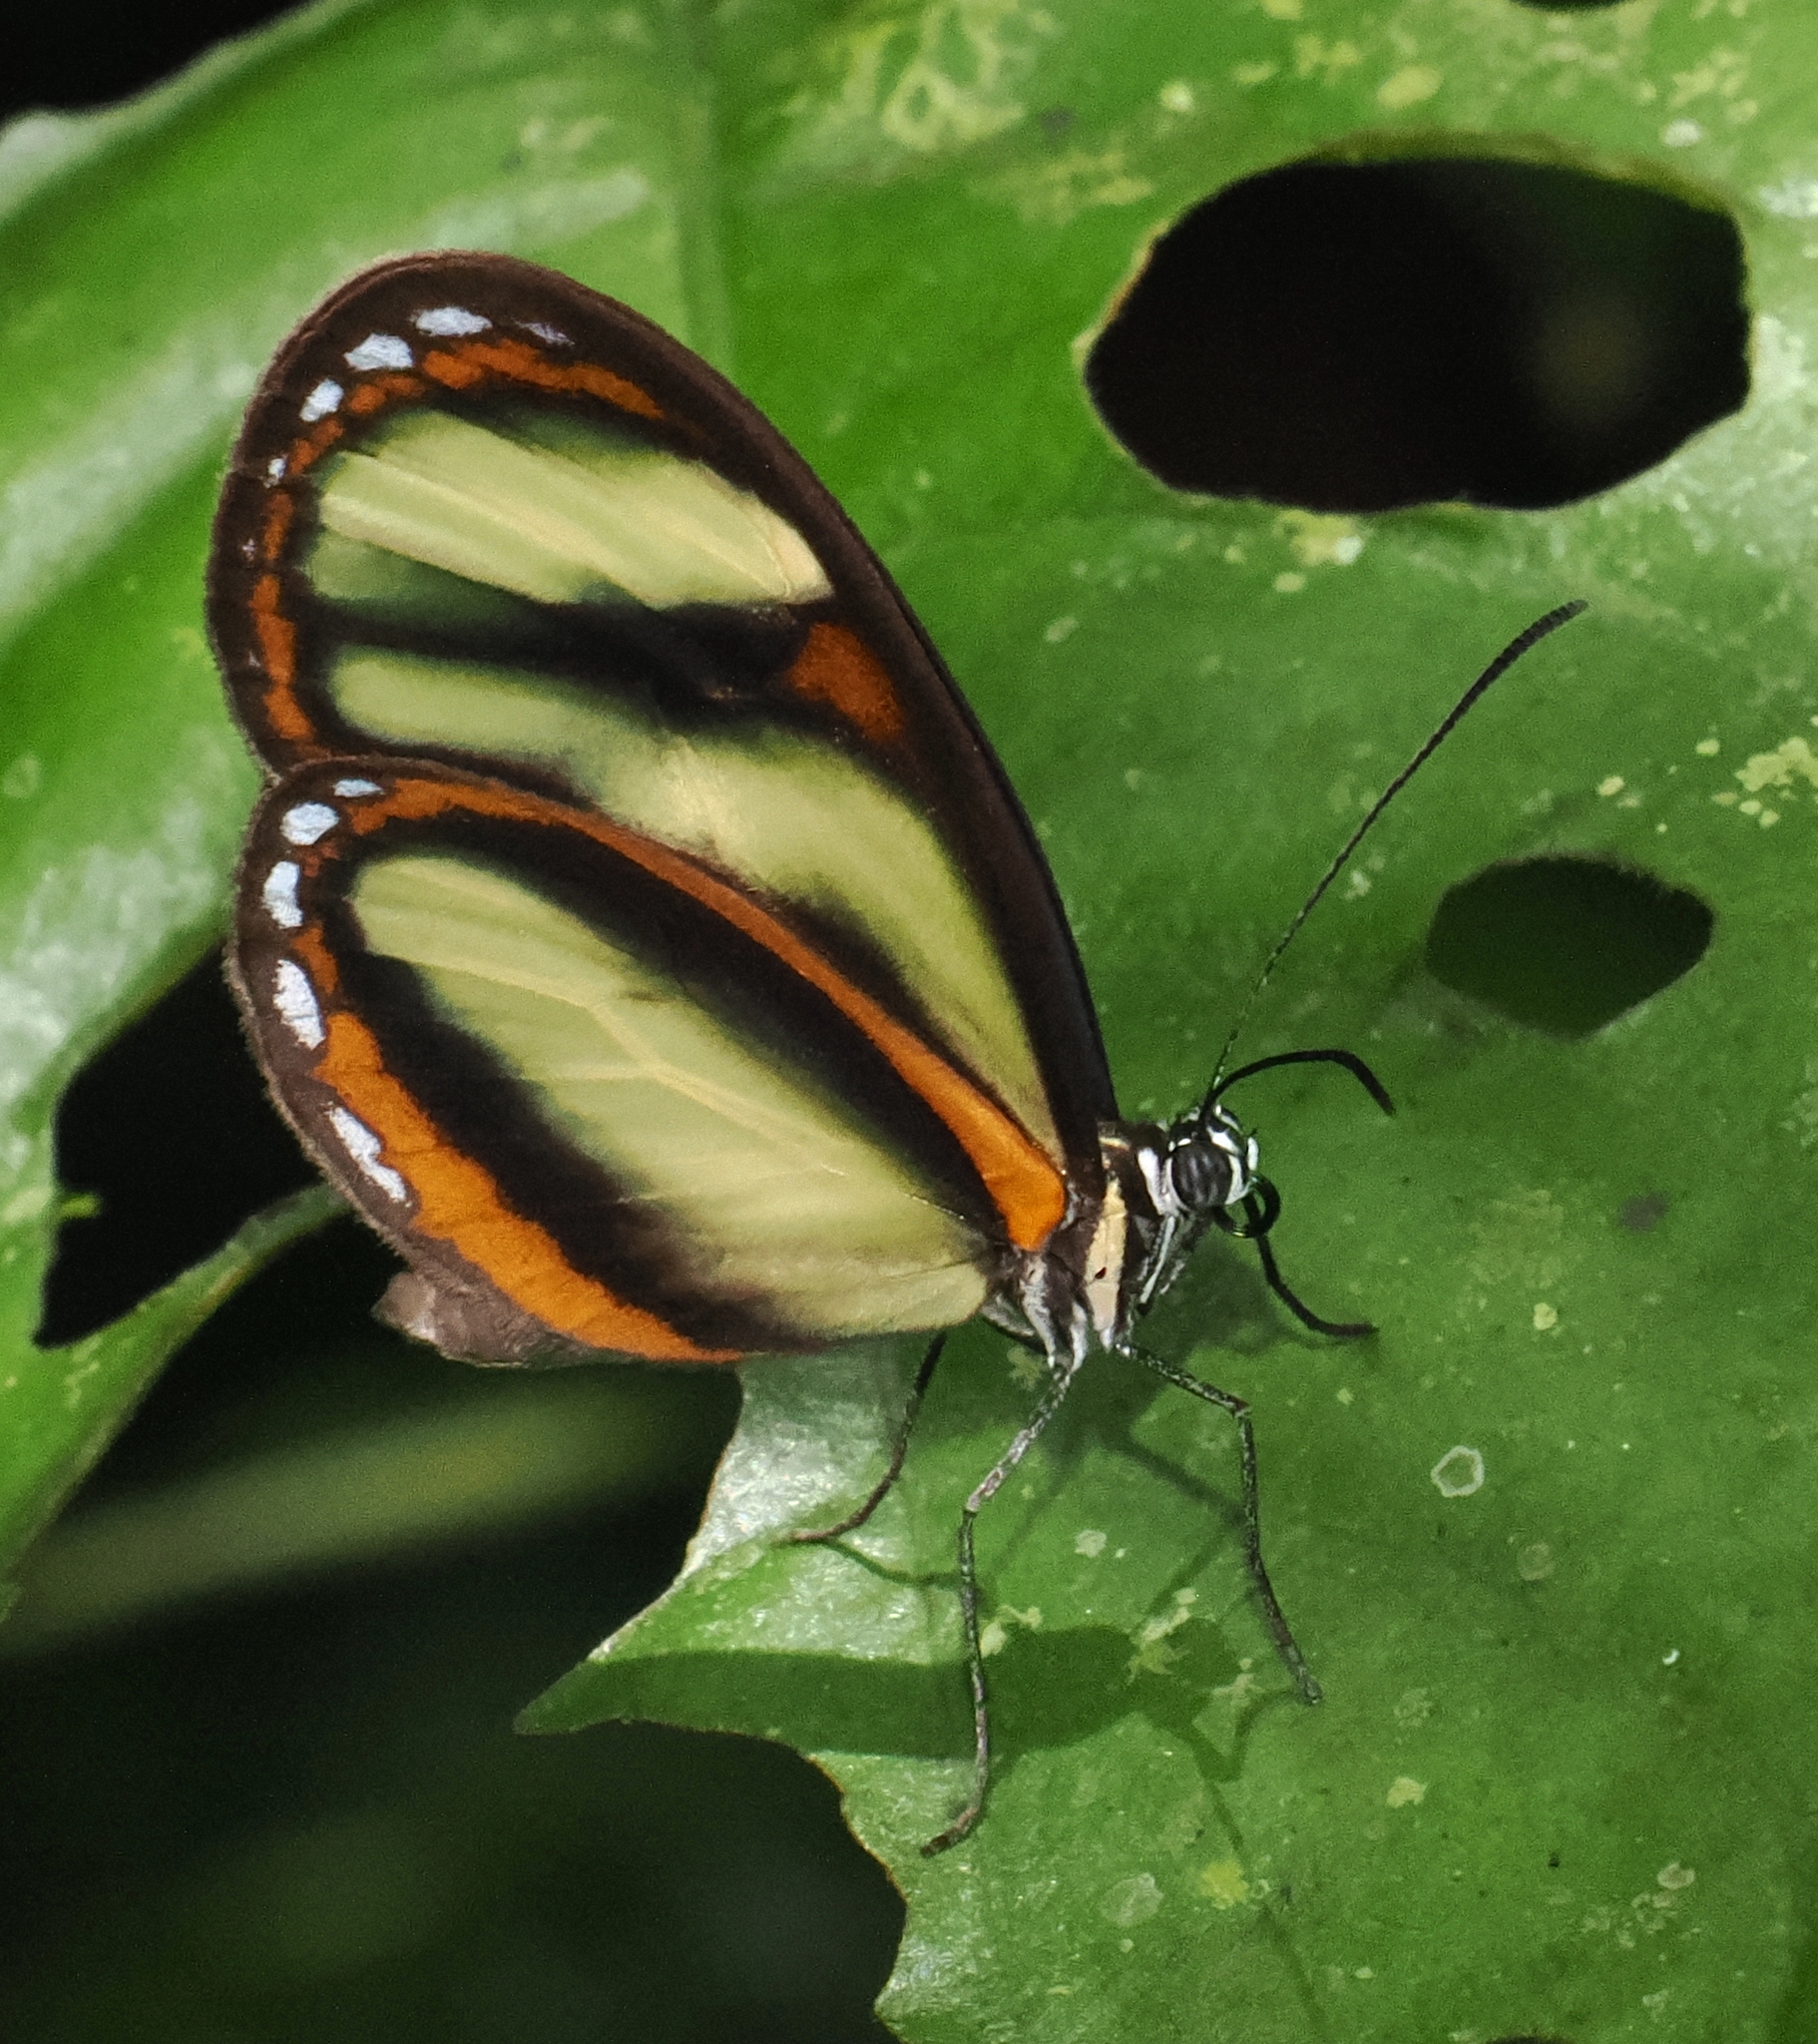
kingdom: Animalia
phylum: Arthropoda
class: Insecta
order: Lepidoptera
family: Nymphalidae
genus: Napeogenes
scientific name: Napeogenes inachia
